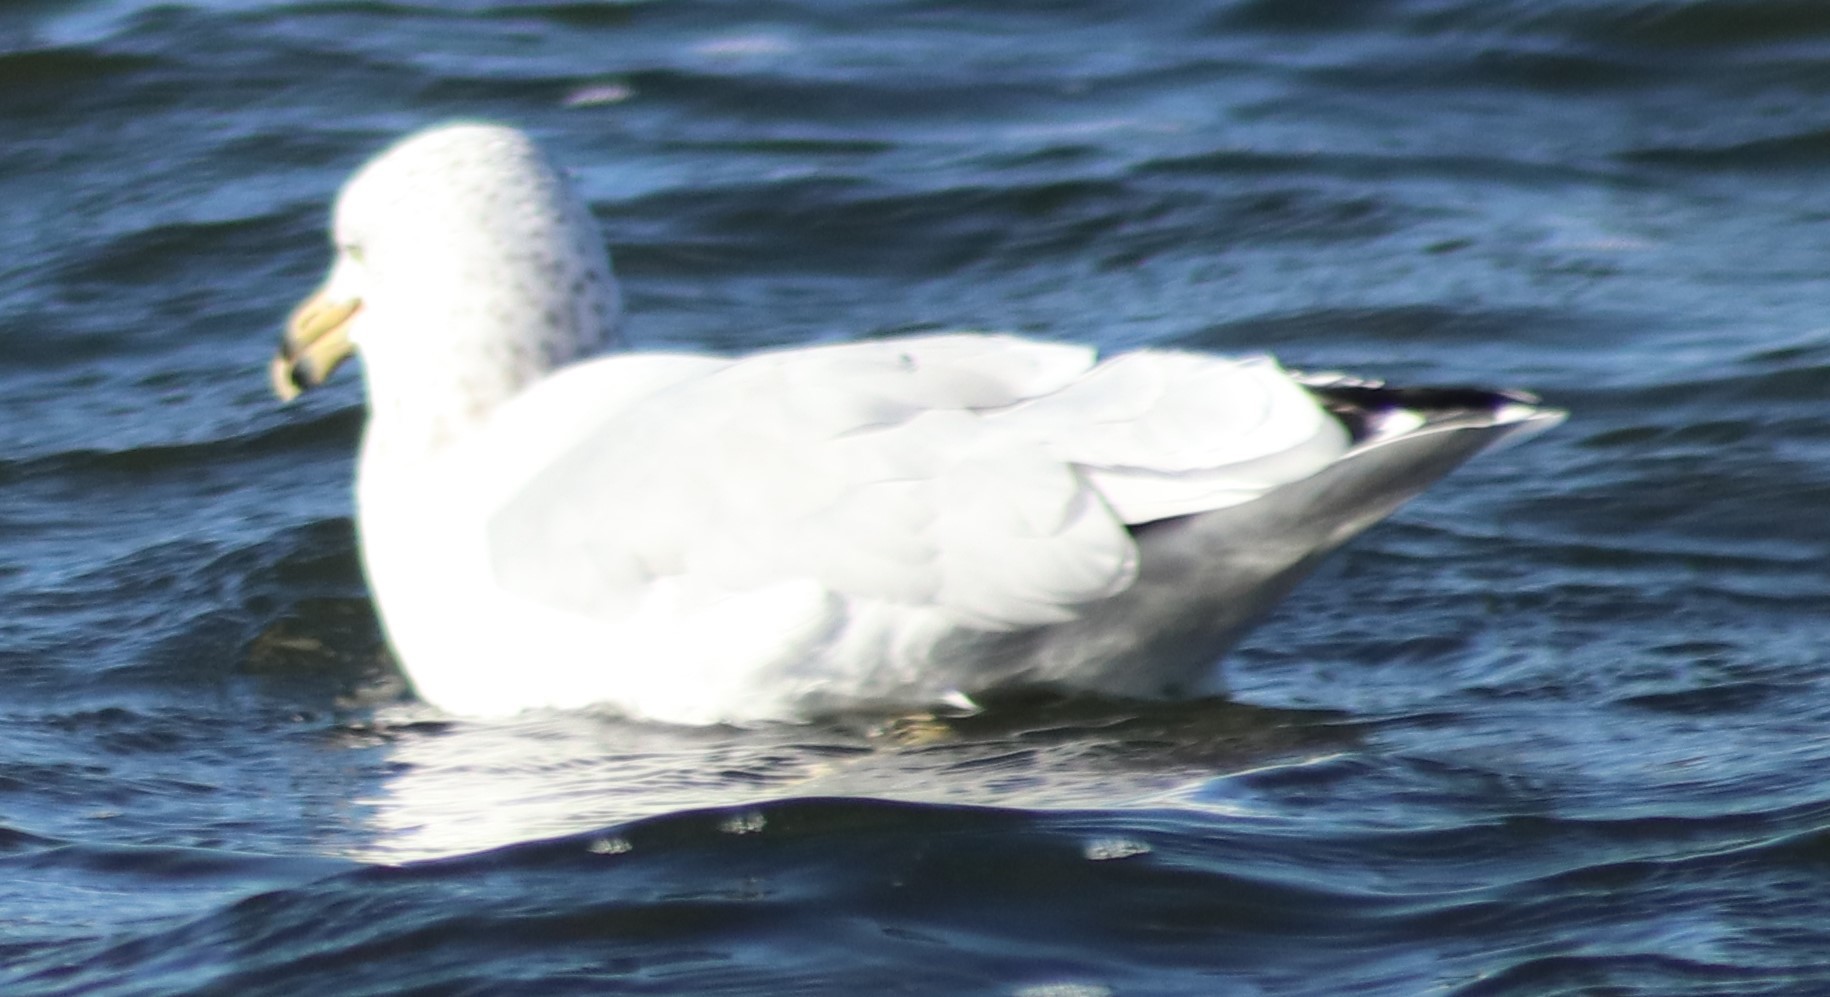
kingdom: Animalia
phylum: Chordata
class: Aves
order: Charadriiformes
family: Laridae
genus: Larus
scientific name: Larus delawarensis
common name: Ring-billed gull
